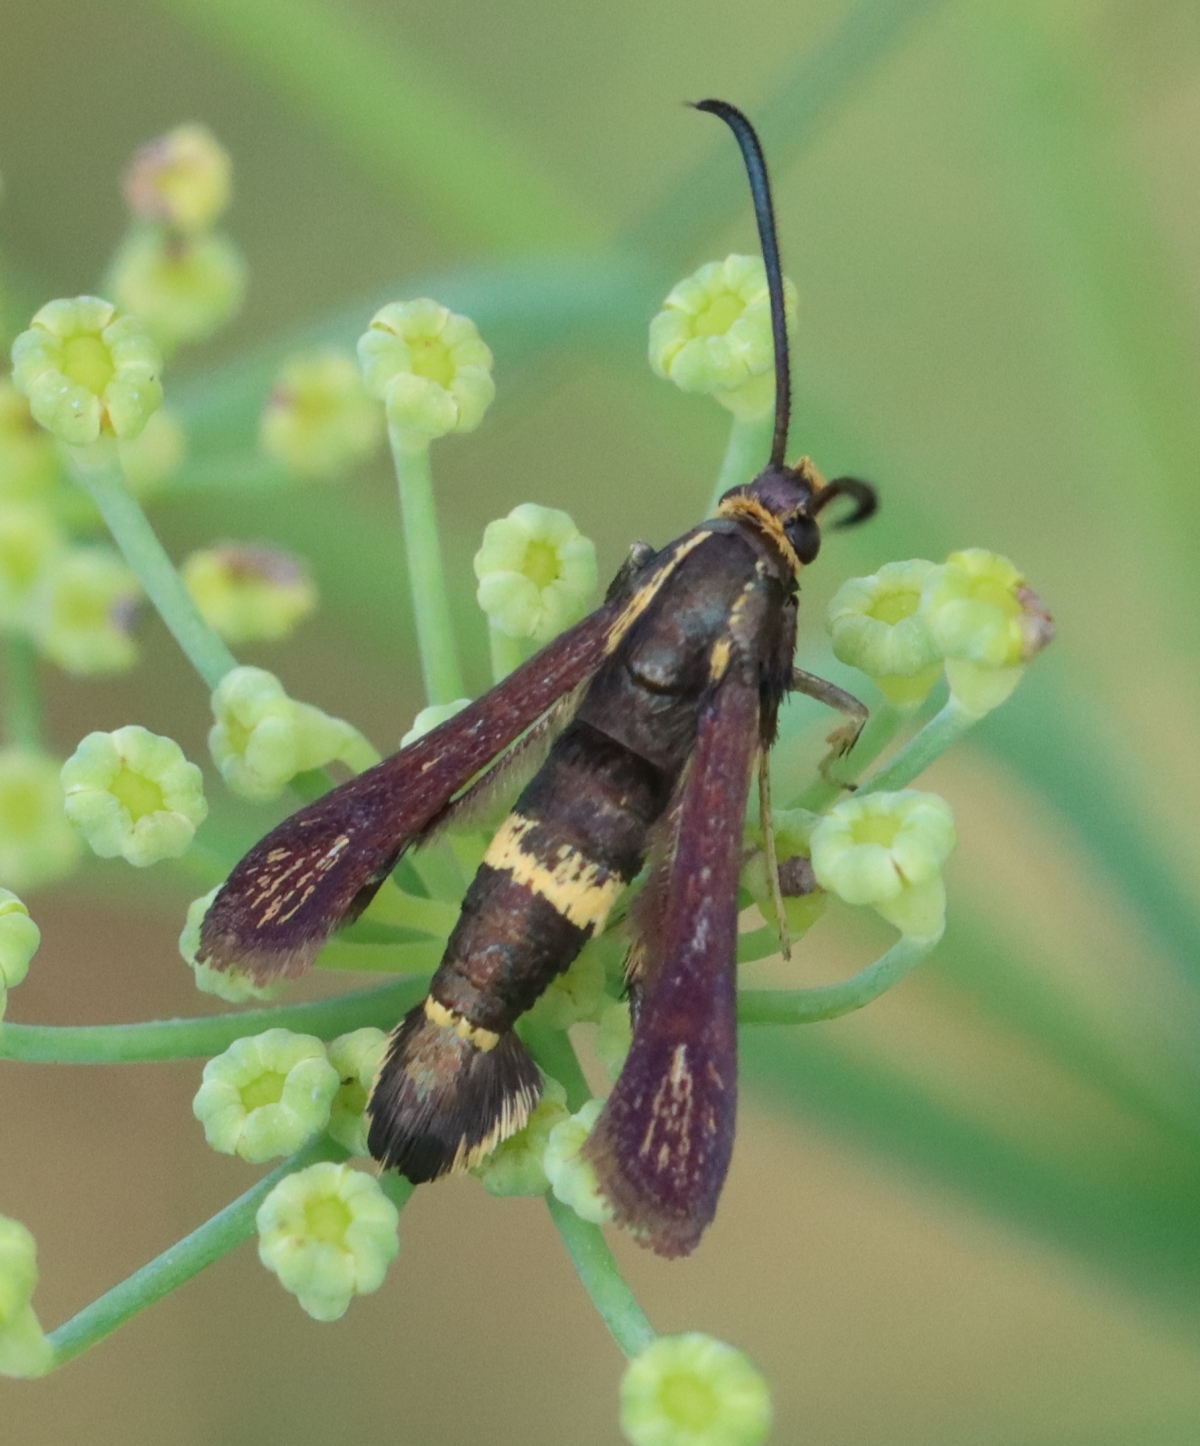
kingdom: Animalia
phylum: Arthropoda
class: Insecta
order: Lepidoptera
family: Sesiidae
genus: Carmenta
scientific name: Carmenta pyralidiformis
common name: Boneset borer moth
